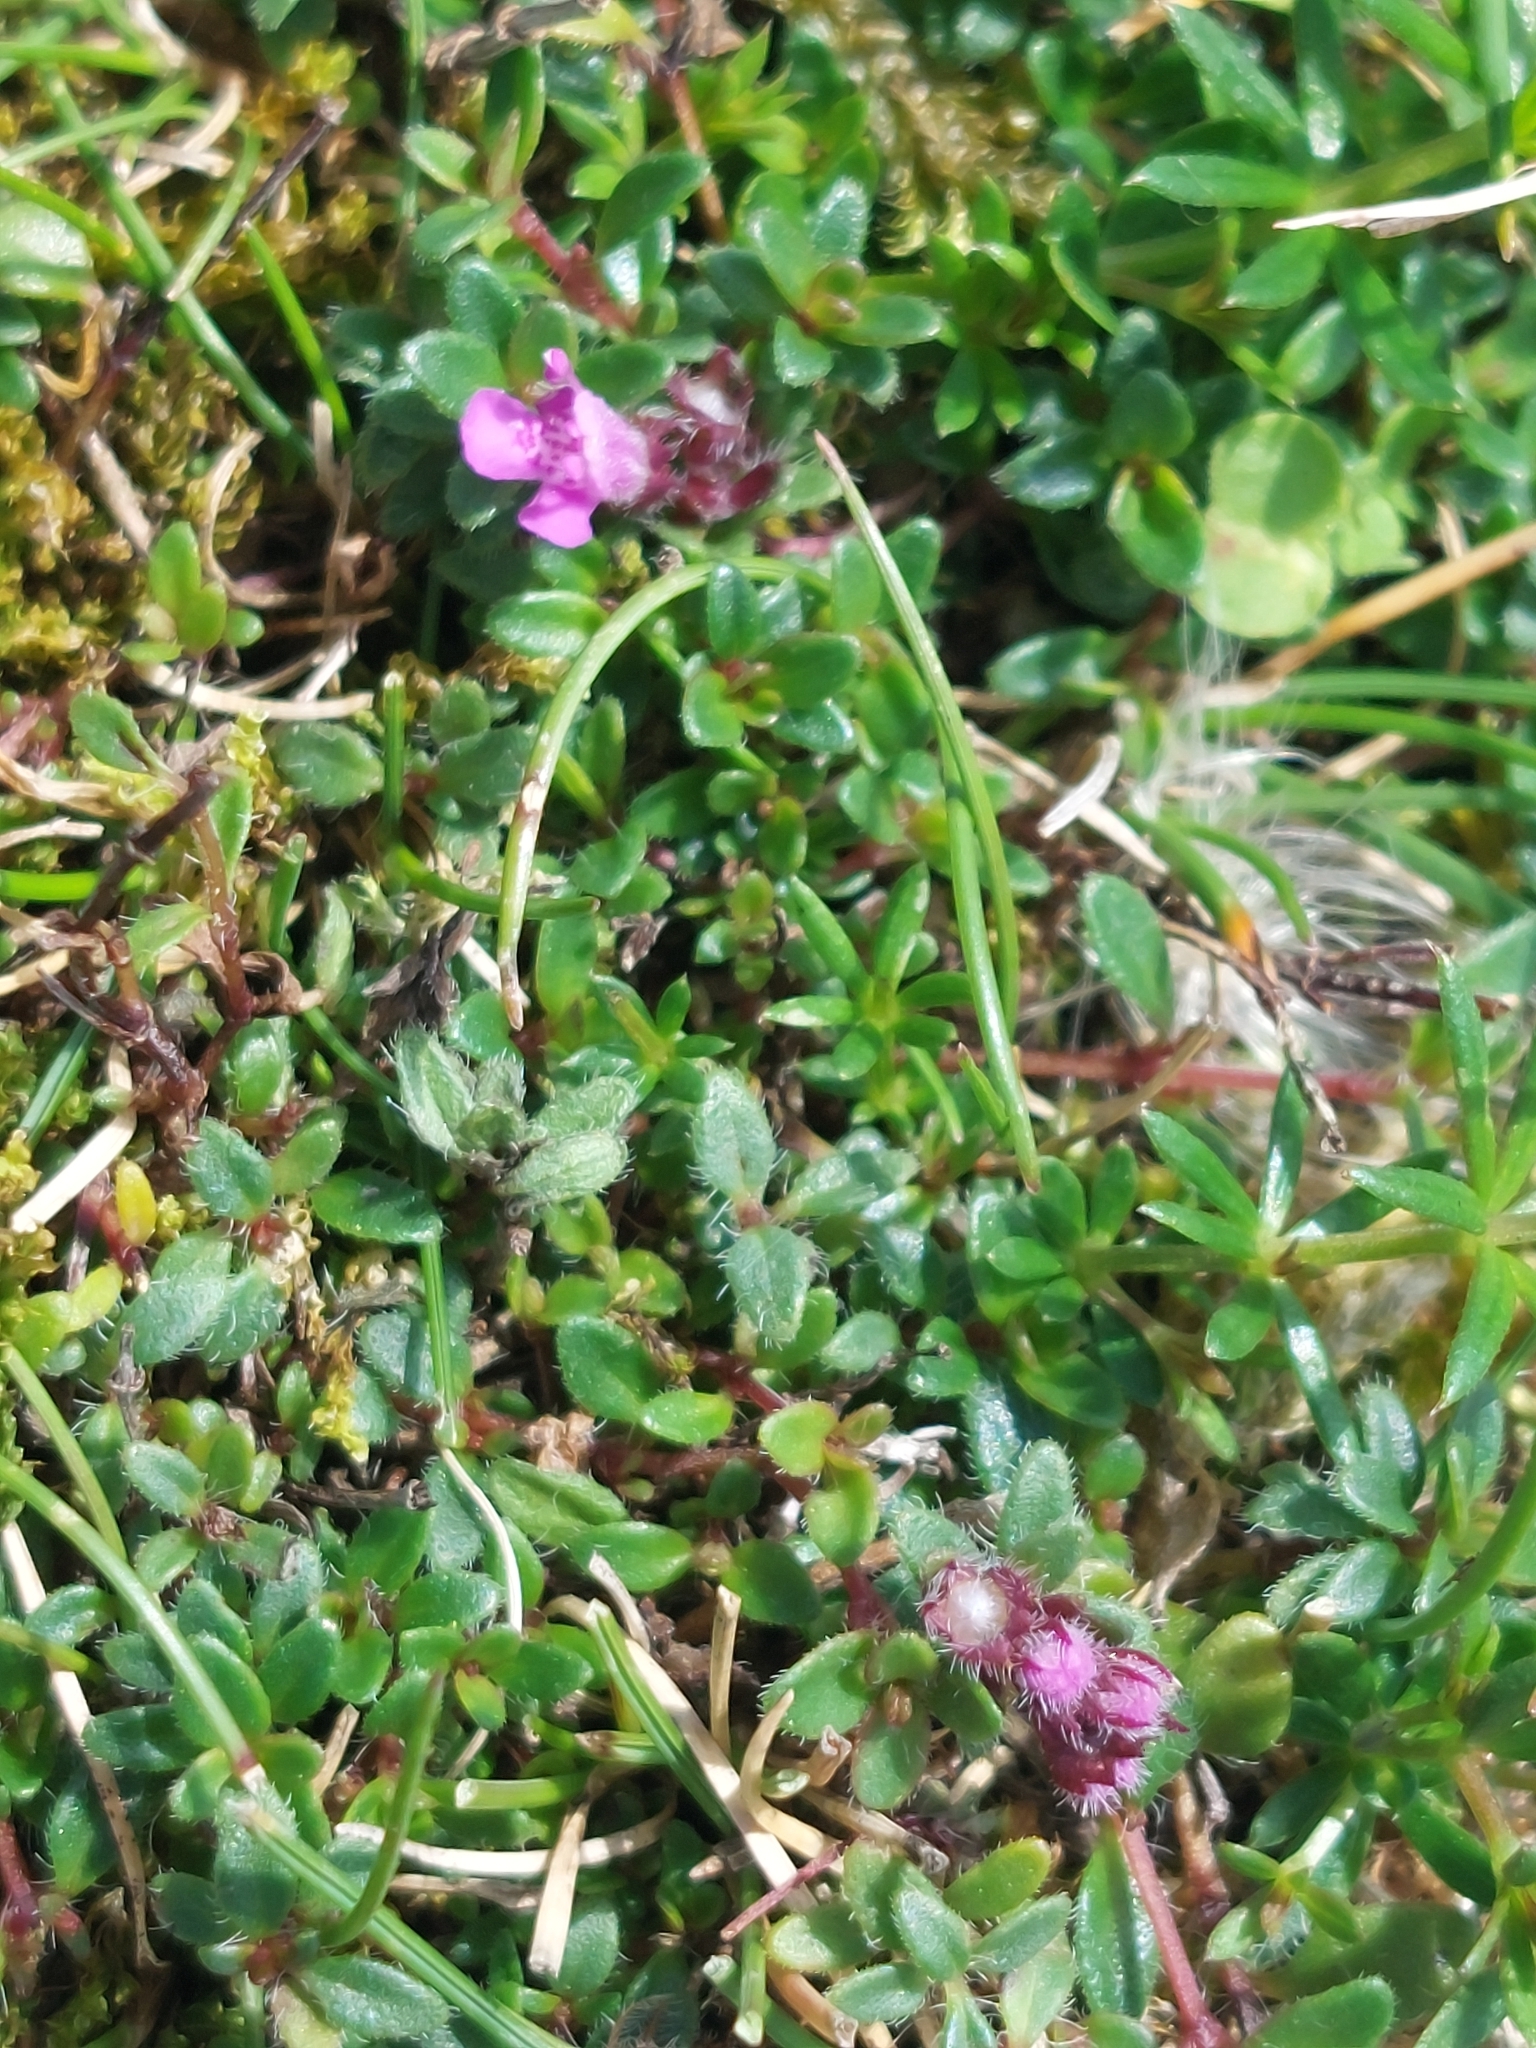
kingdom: Plantae
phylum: Tracheophyta
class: Magnoliopsida
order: Lamiales
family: Lamiaceae
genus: Thymus
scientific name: Thymus praecox
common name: Wild thyme
